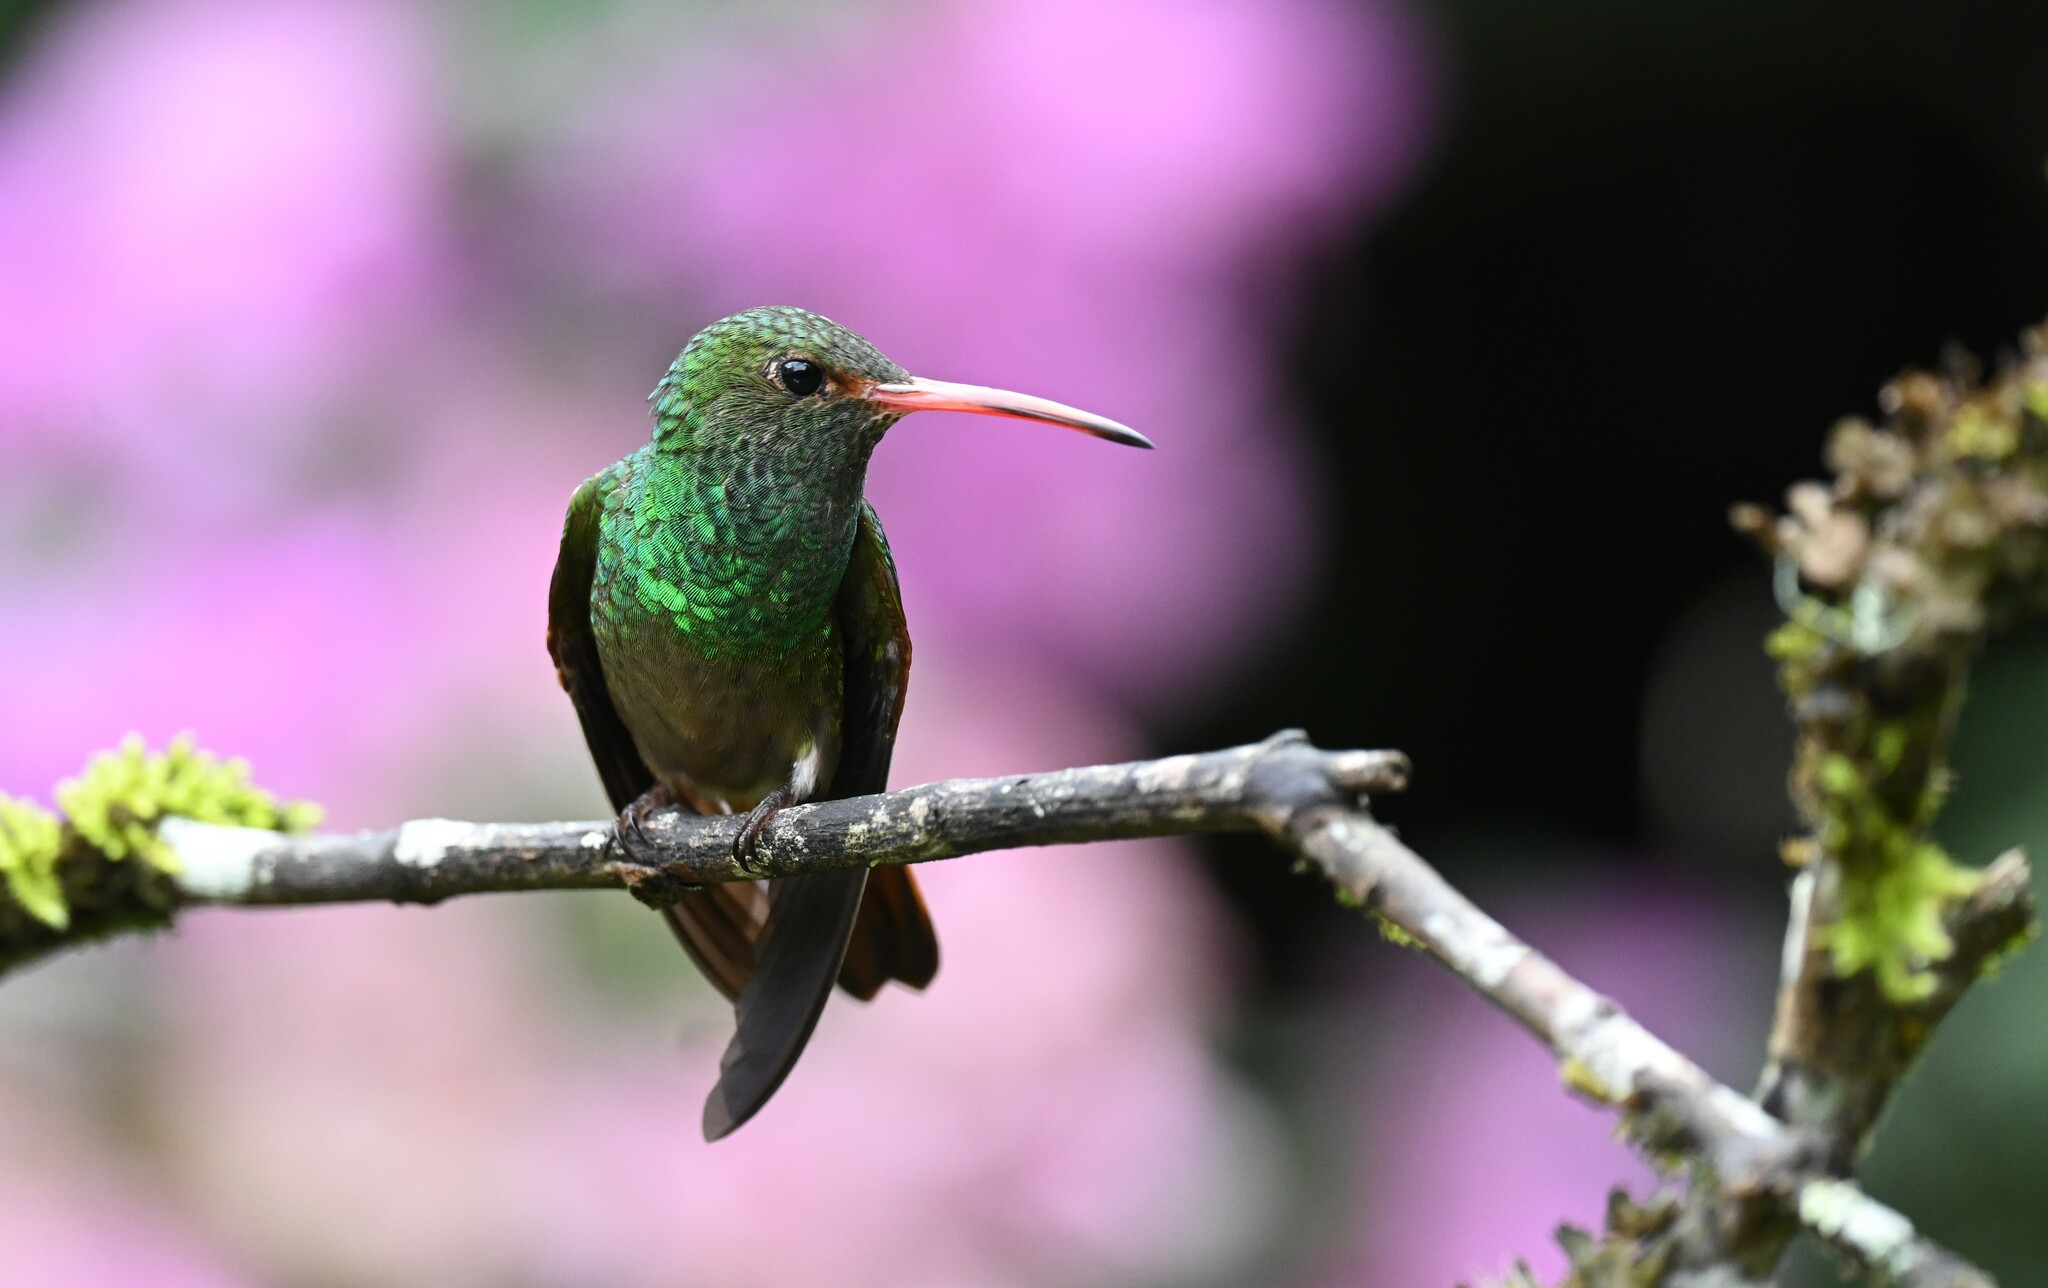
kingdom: Animalia
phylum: Chordata
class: Aves
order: Apodiformes
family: Trochilidae
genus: Amazilia
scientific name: Amazilia tzacatl
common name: Rufous-tailed hummingbird
